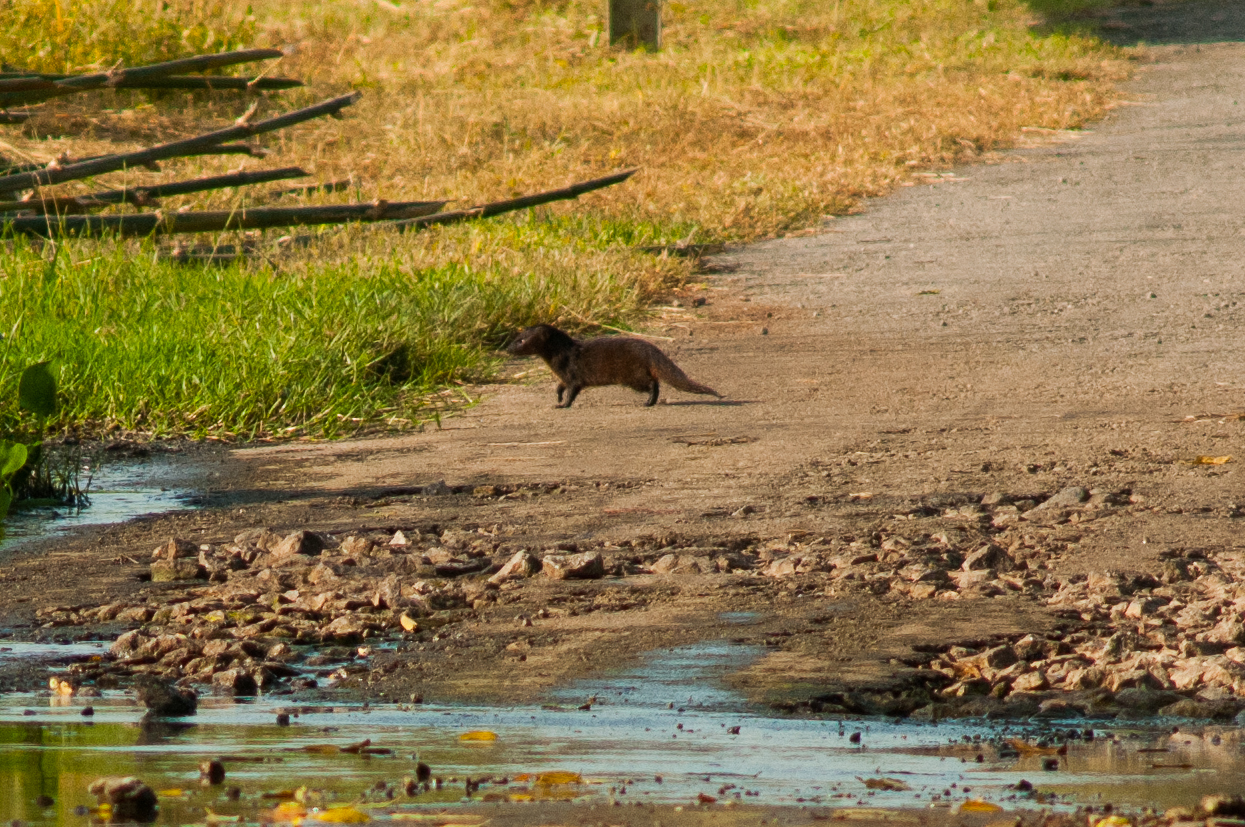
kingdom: Animalia
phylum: Chordata
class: Mammalia
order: Carnivora
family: Herpestidae
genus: Herpestes
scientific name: Herpestes javanicus
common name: Small asian mongoose
